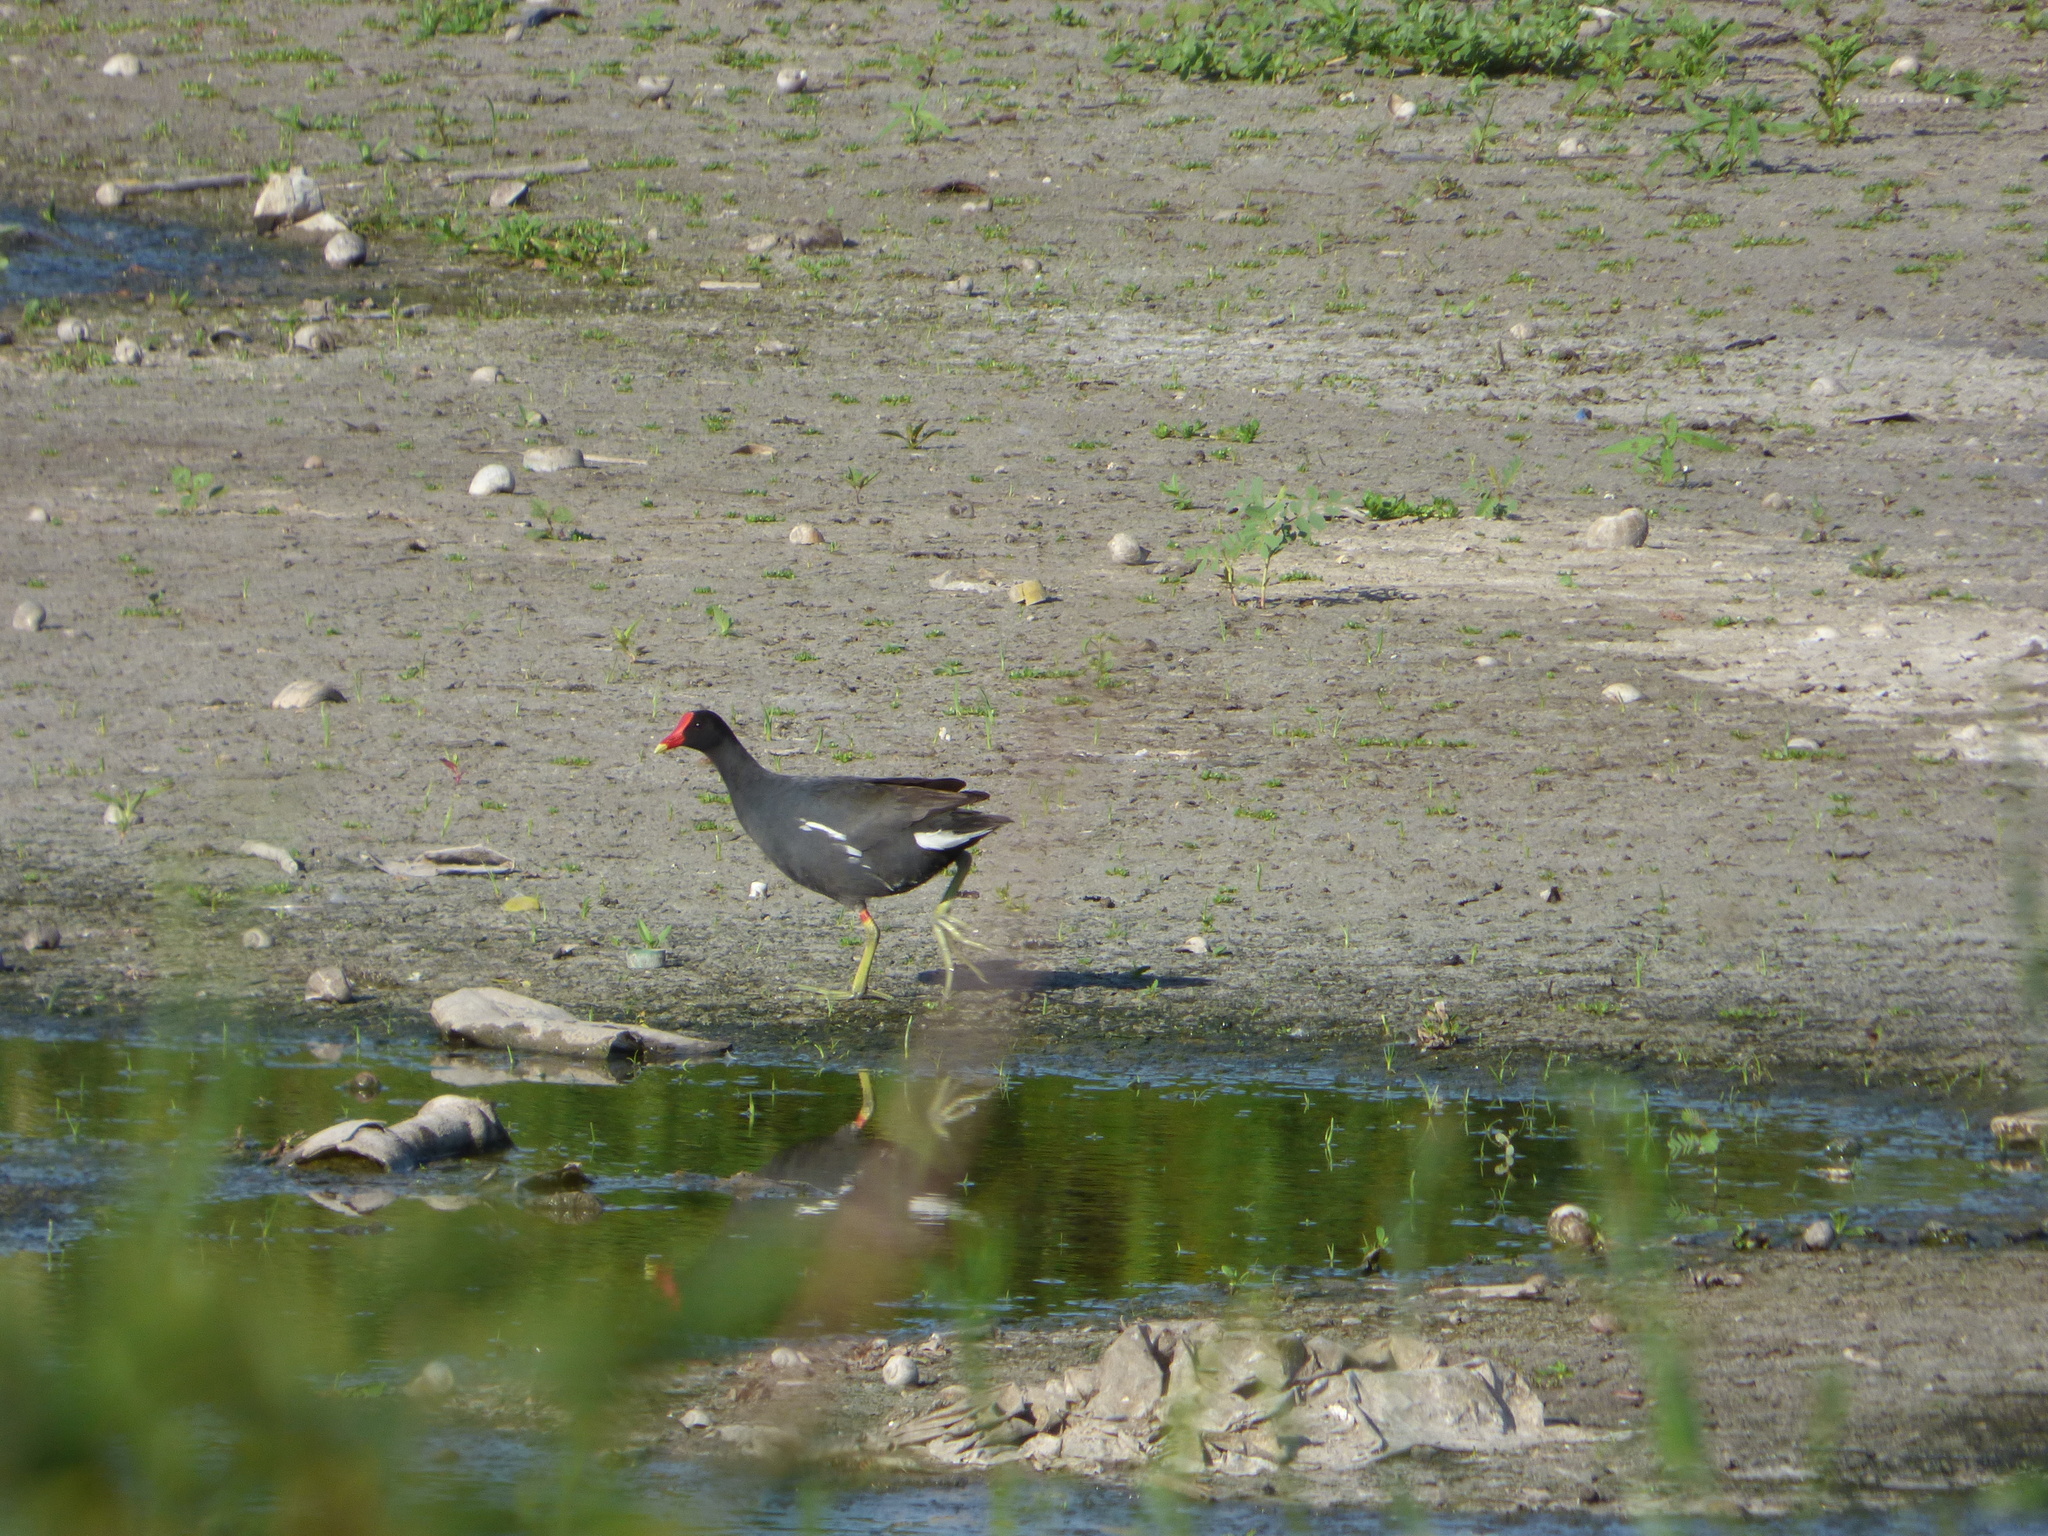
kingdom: Animalia
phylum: Chordata
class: Aves
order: Gruiformes
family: Rallidae
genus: Gallinula
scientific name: Gallinula chloropus
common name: Common moorhen
